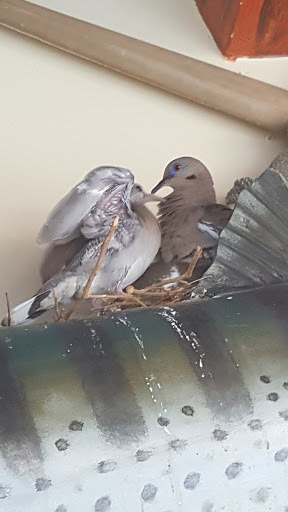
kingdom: Animalia
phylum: Chordata
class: Aves
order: Columbiformes
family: Columbidae
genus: Zenaida
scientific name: Zenaida asiatica
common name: White-winged dove
